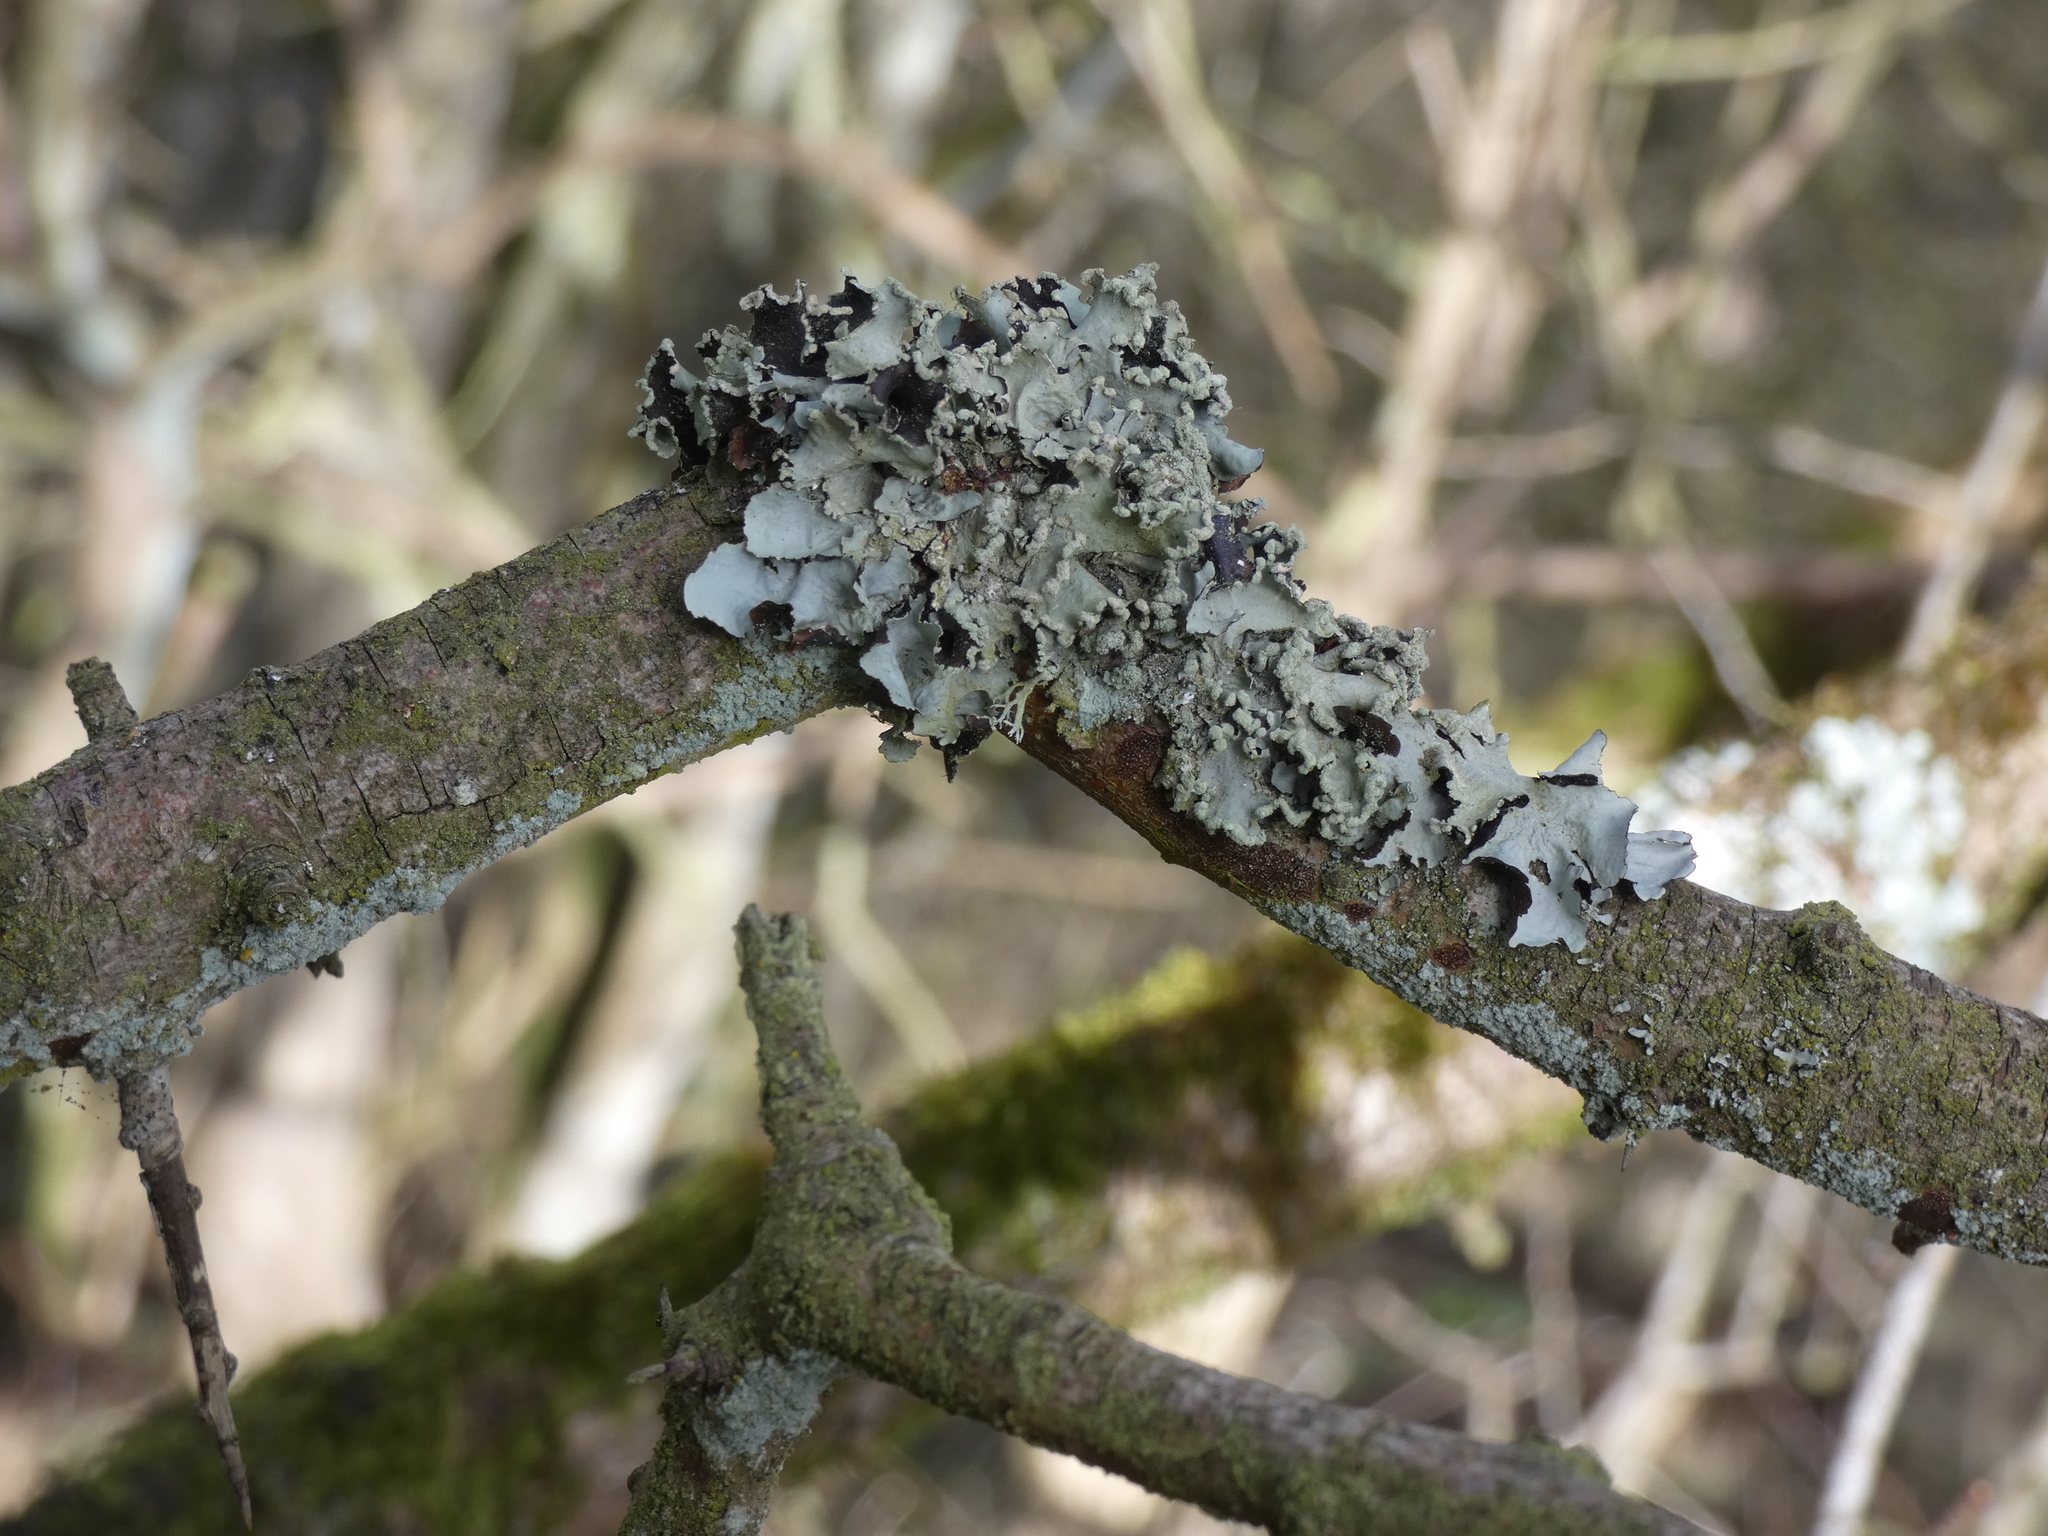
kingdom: Fungi
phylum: Ascomycota
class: Lecanoromycetes
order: Lecanorales
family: Parmeliaceae
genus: Parmotrema
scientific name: Parmotrema perlatum
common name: Black stone flower
